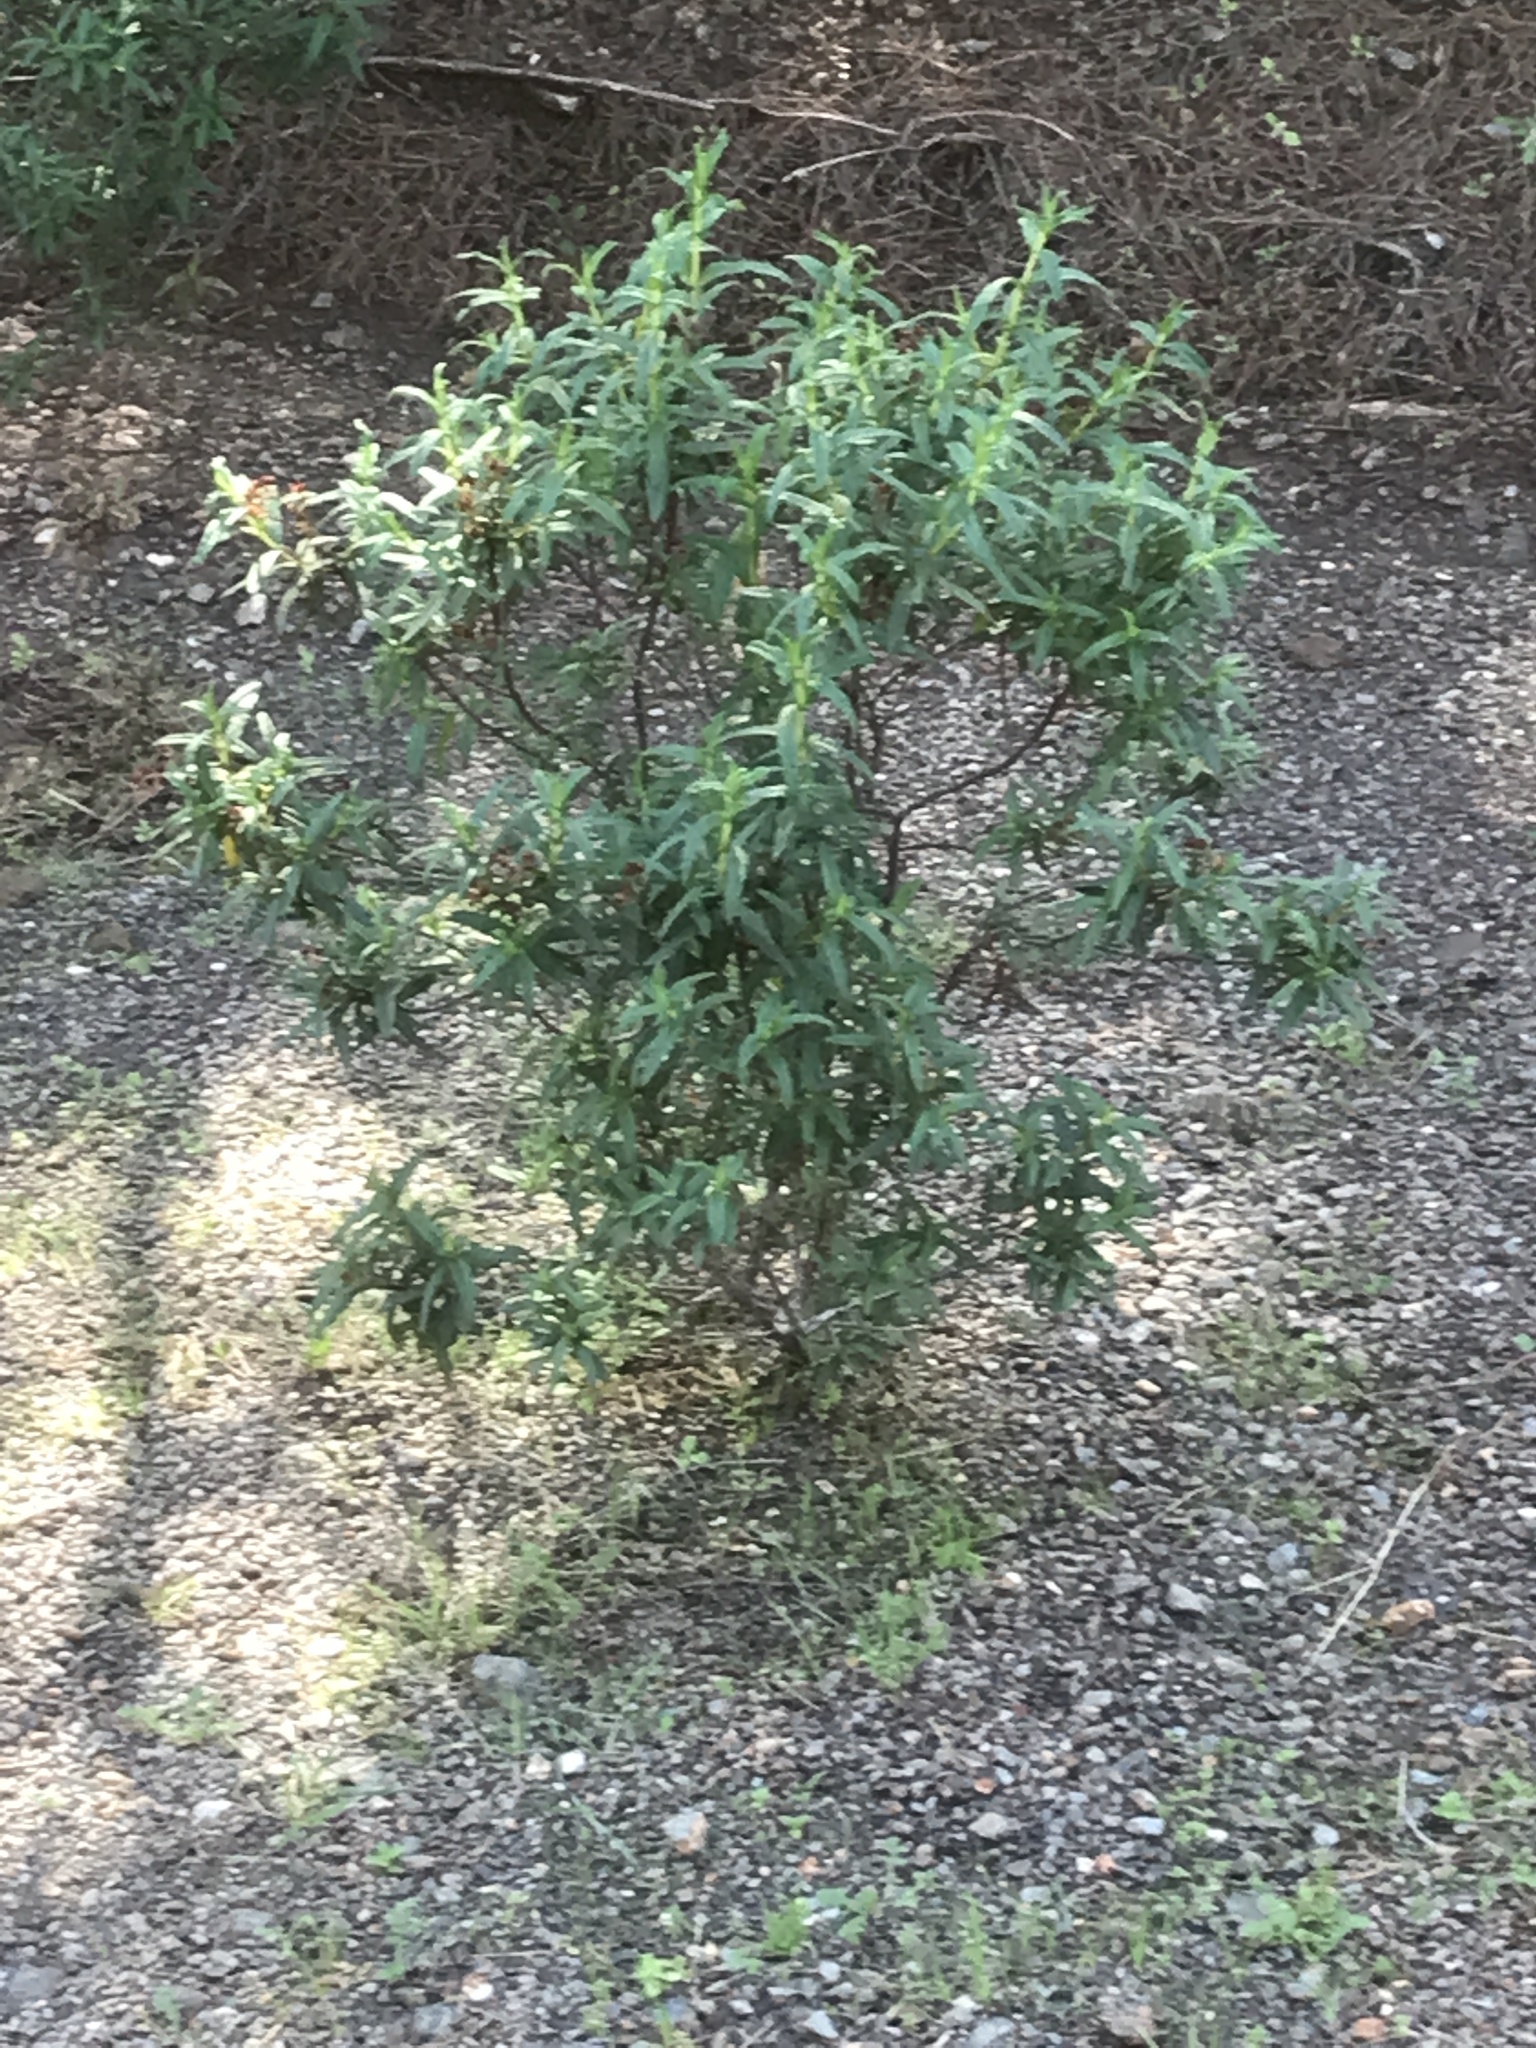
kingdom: Plantae
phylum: Tracheophyta
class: Magnoliopsida
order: Malvales
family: Cistaceae
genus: Cistus
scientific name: Cistus monspeliensis
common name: Montpelier cistus
